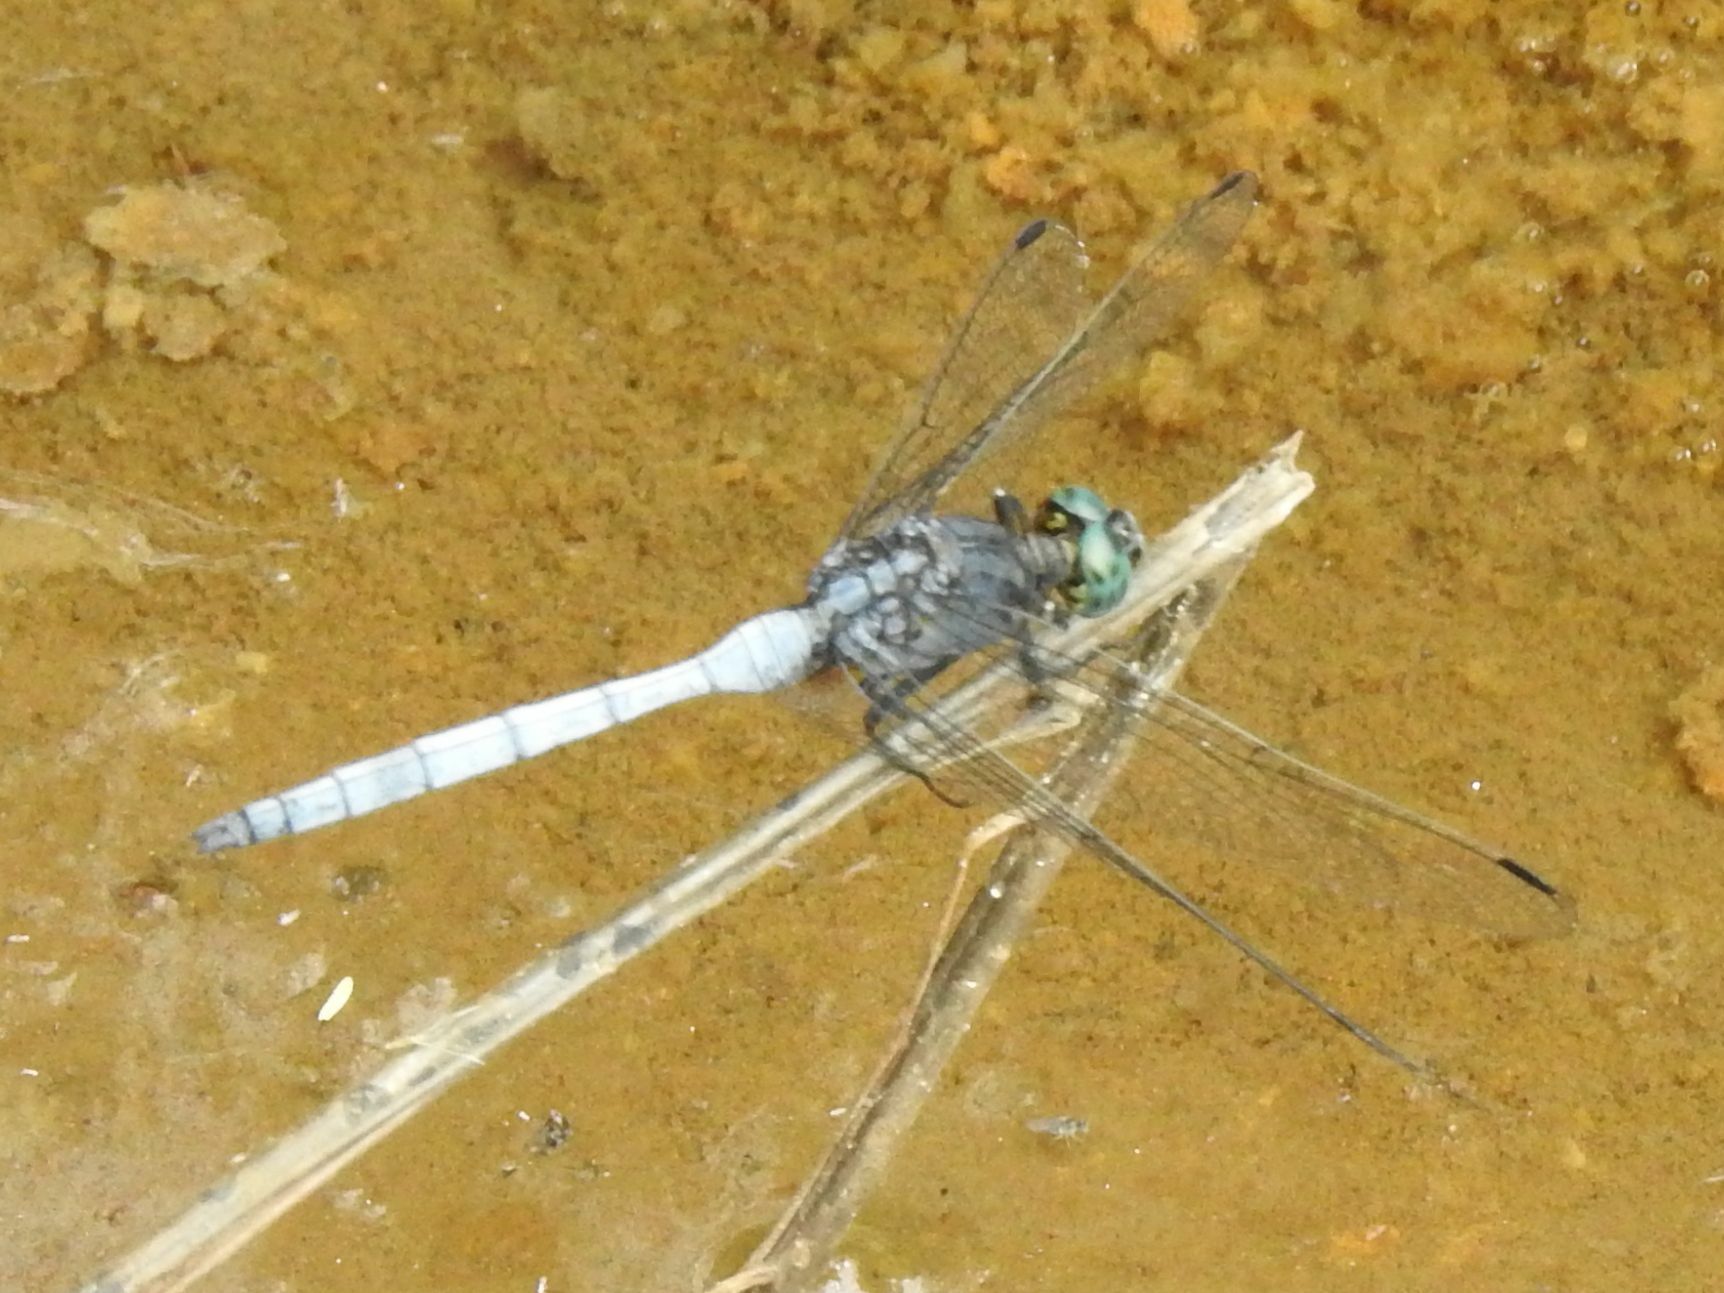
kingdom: Animalia
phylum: Arthropoda
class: Insecta
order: Odonata
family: Libellulidae
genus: Orthetrum
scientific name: Orthetrum julia
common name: Julia skimmer
